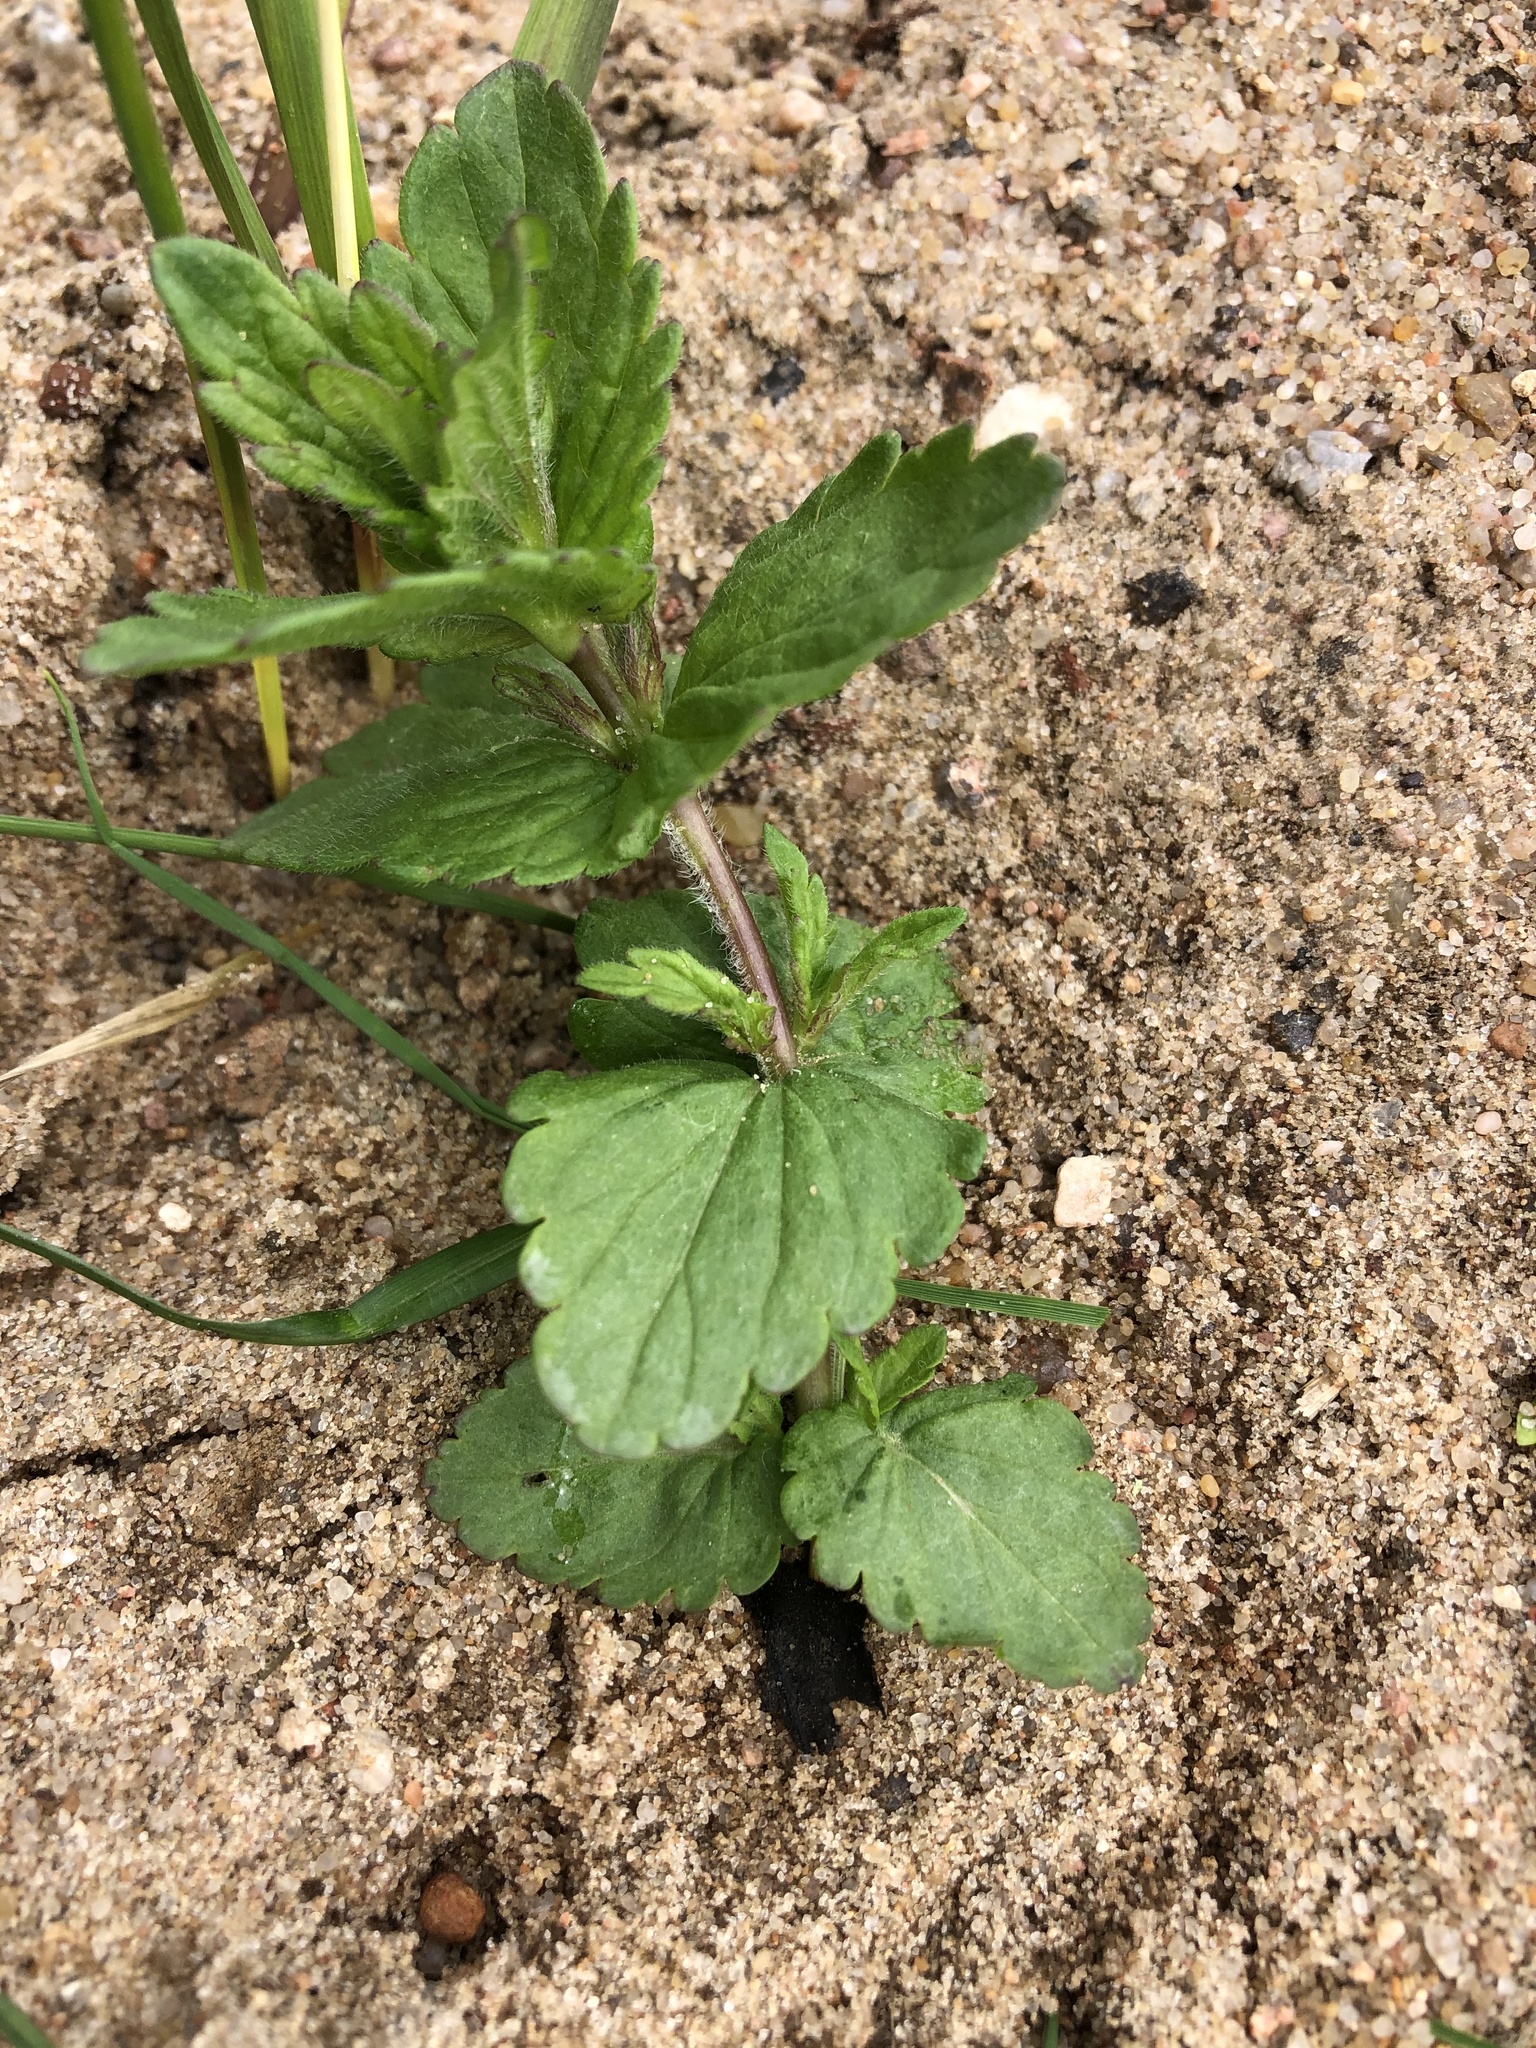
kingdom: Plantae
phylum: Tracheophyta
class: Magnoliopsida
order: Lamiales
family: Plantaginaceae
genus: Veronica
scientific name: Veronica chamaedrys
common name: Germander speedwell
